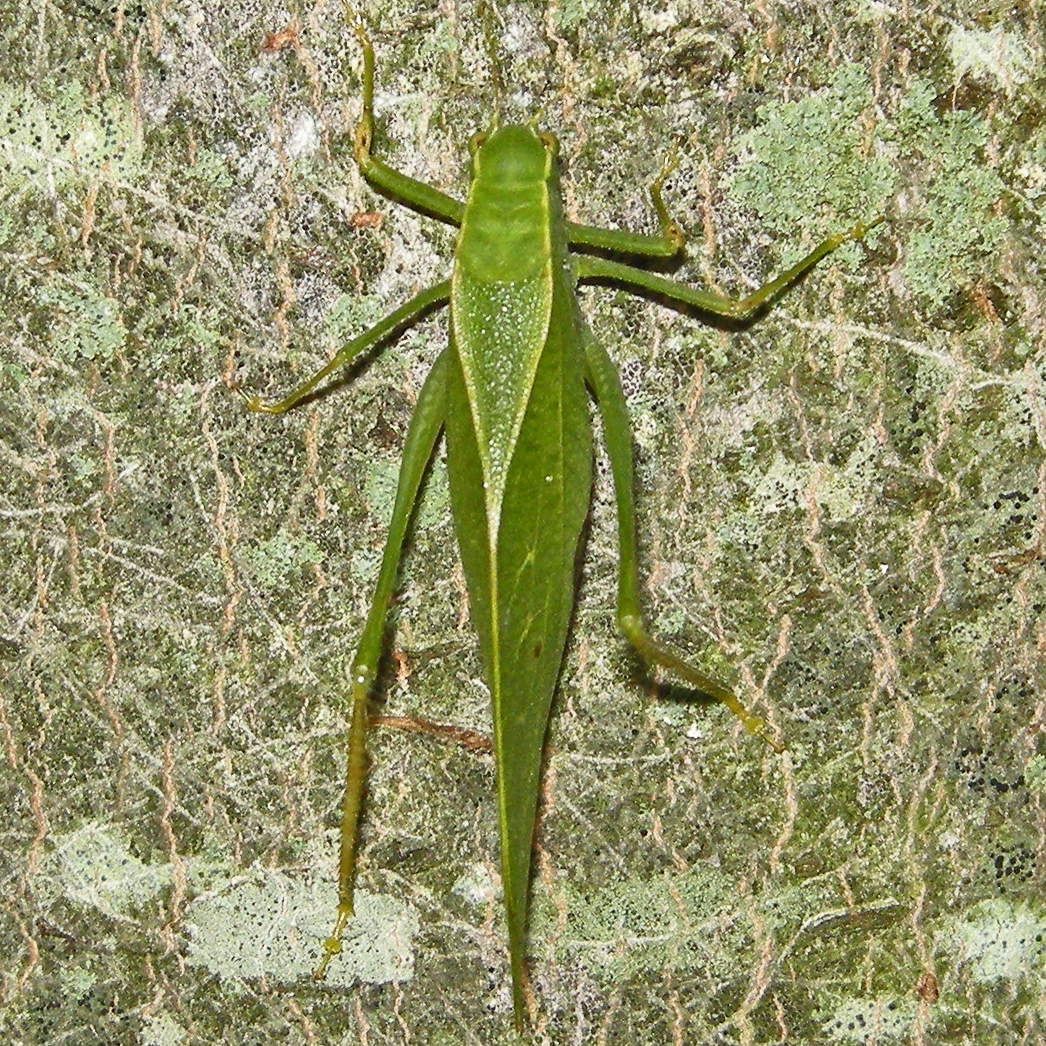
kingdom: Animalia
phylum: Arthropoda
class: Insecta
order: Orthoptera
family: Tettigoniidae
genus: Microcentrum
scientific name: Microcentrum retinerve
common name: Angular-winged katydid
